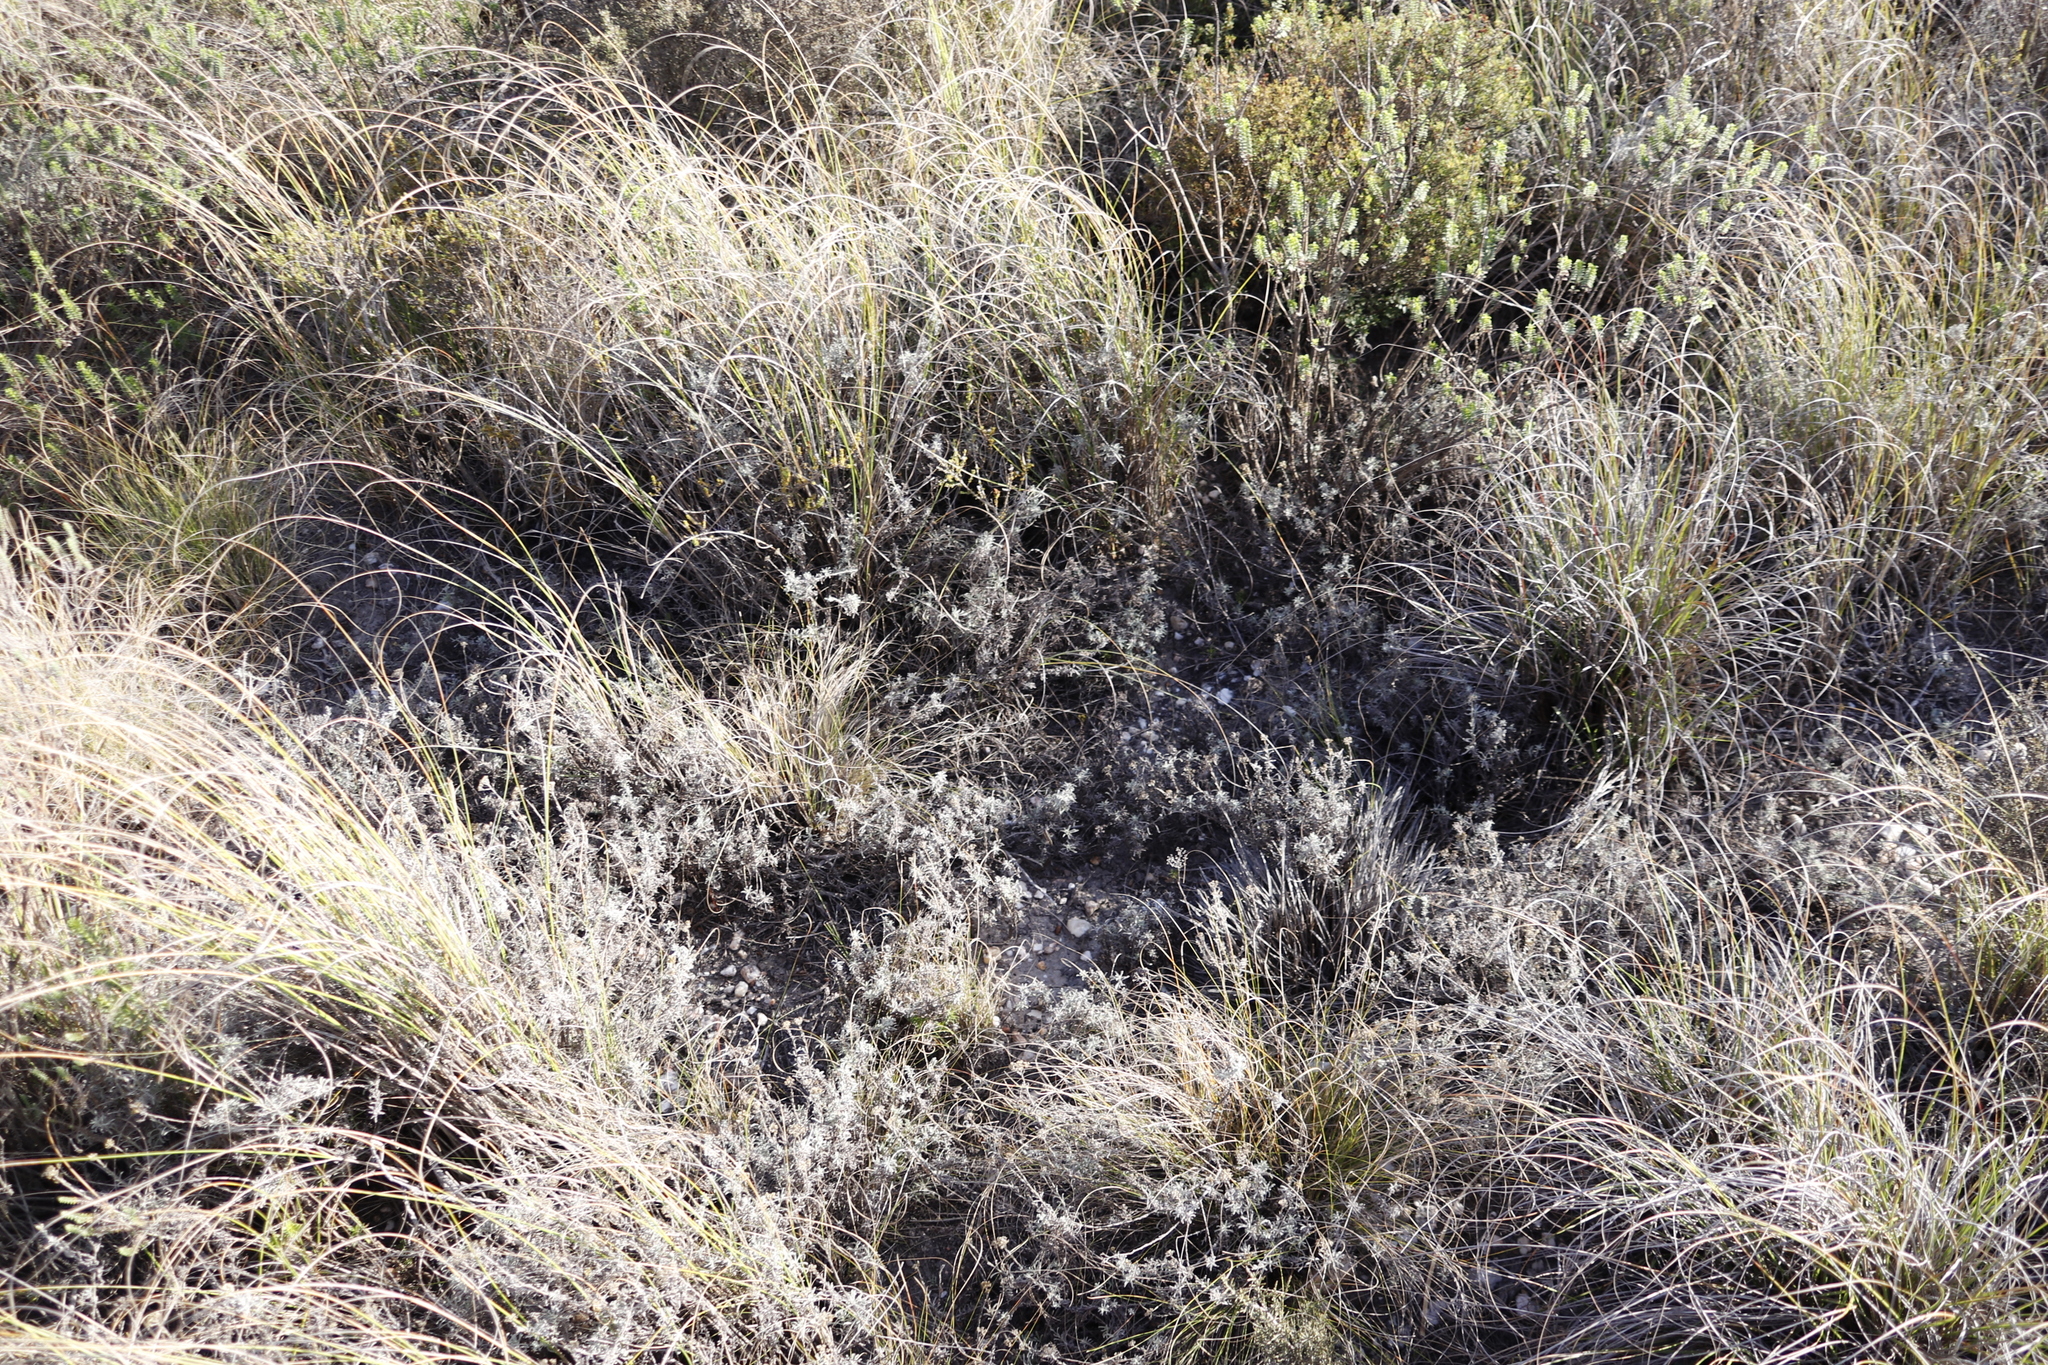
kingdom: Plantae
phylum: Tracheophyta
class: Magnoliopsida
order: Asterales
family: Asteraceae
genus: Helichrysum
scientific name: Helichrysum rutilans
